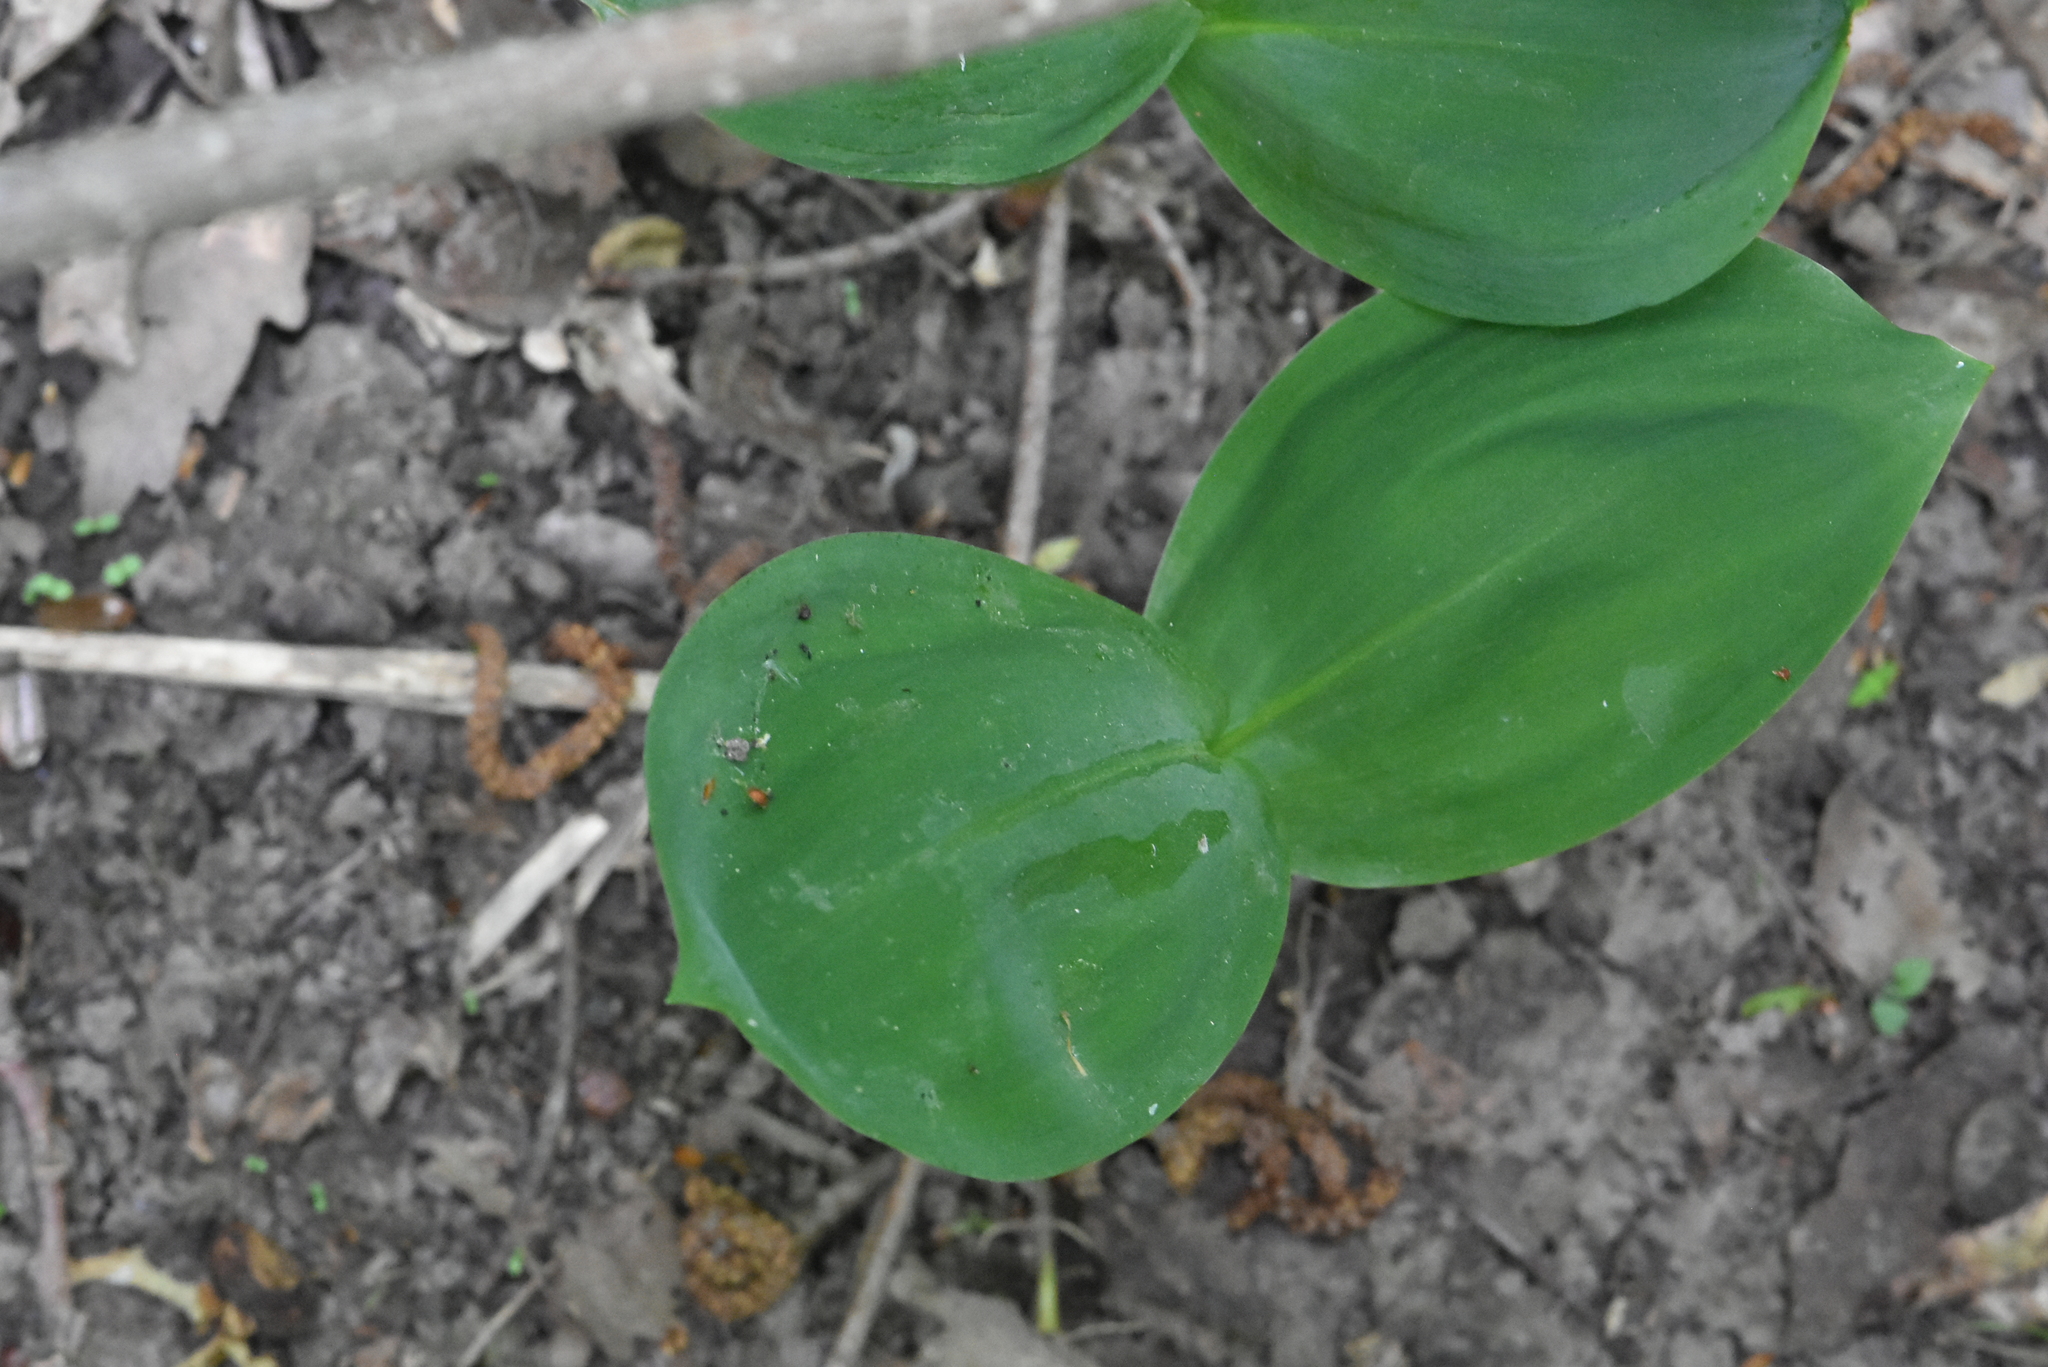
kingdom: Plantae
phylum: Tracheophyta
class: Liliopsida
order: Asparagales
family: Asparagaceae
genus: Convallaria
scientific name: Convallaria majalis
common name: Lily-of-the-valley
